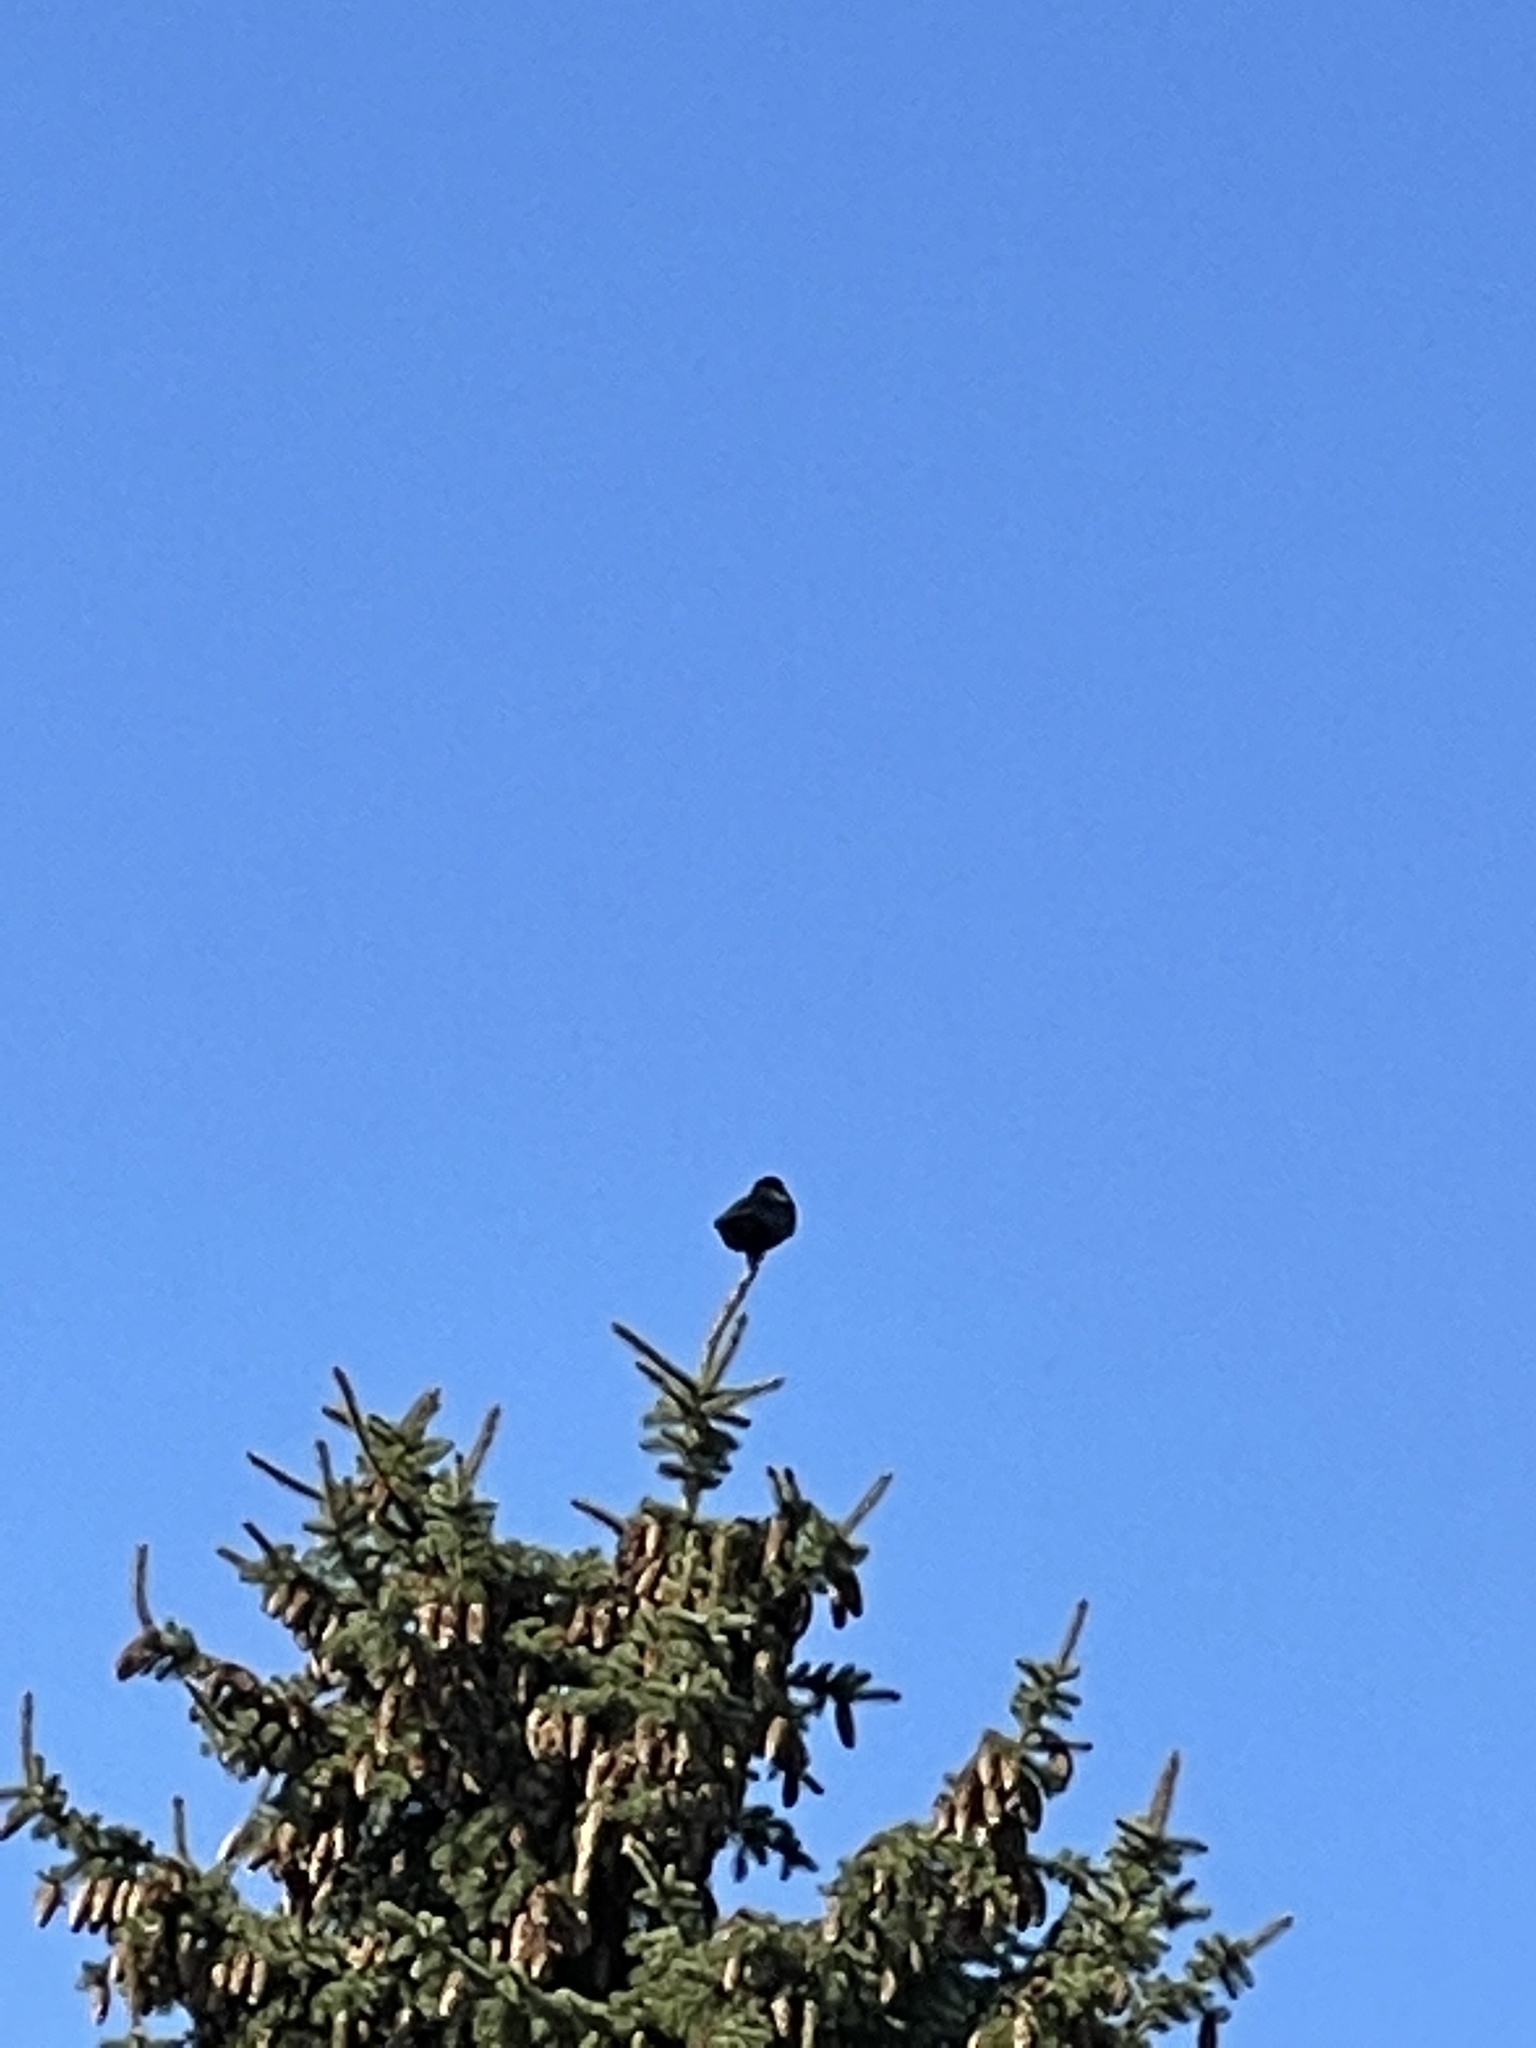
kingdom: Animalia
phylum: Chordata
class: Aves
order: Passeriformes
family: Corvidae
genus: Corvus
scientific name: Corvus corone
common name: Carrion crow
